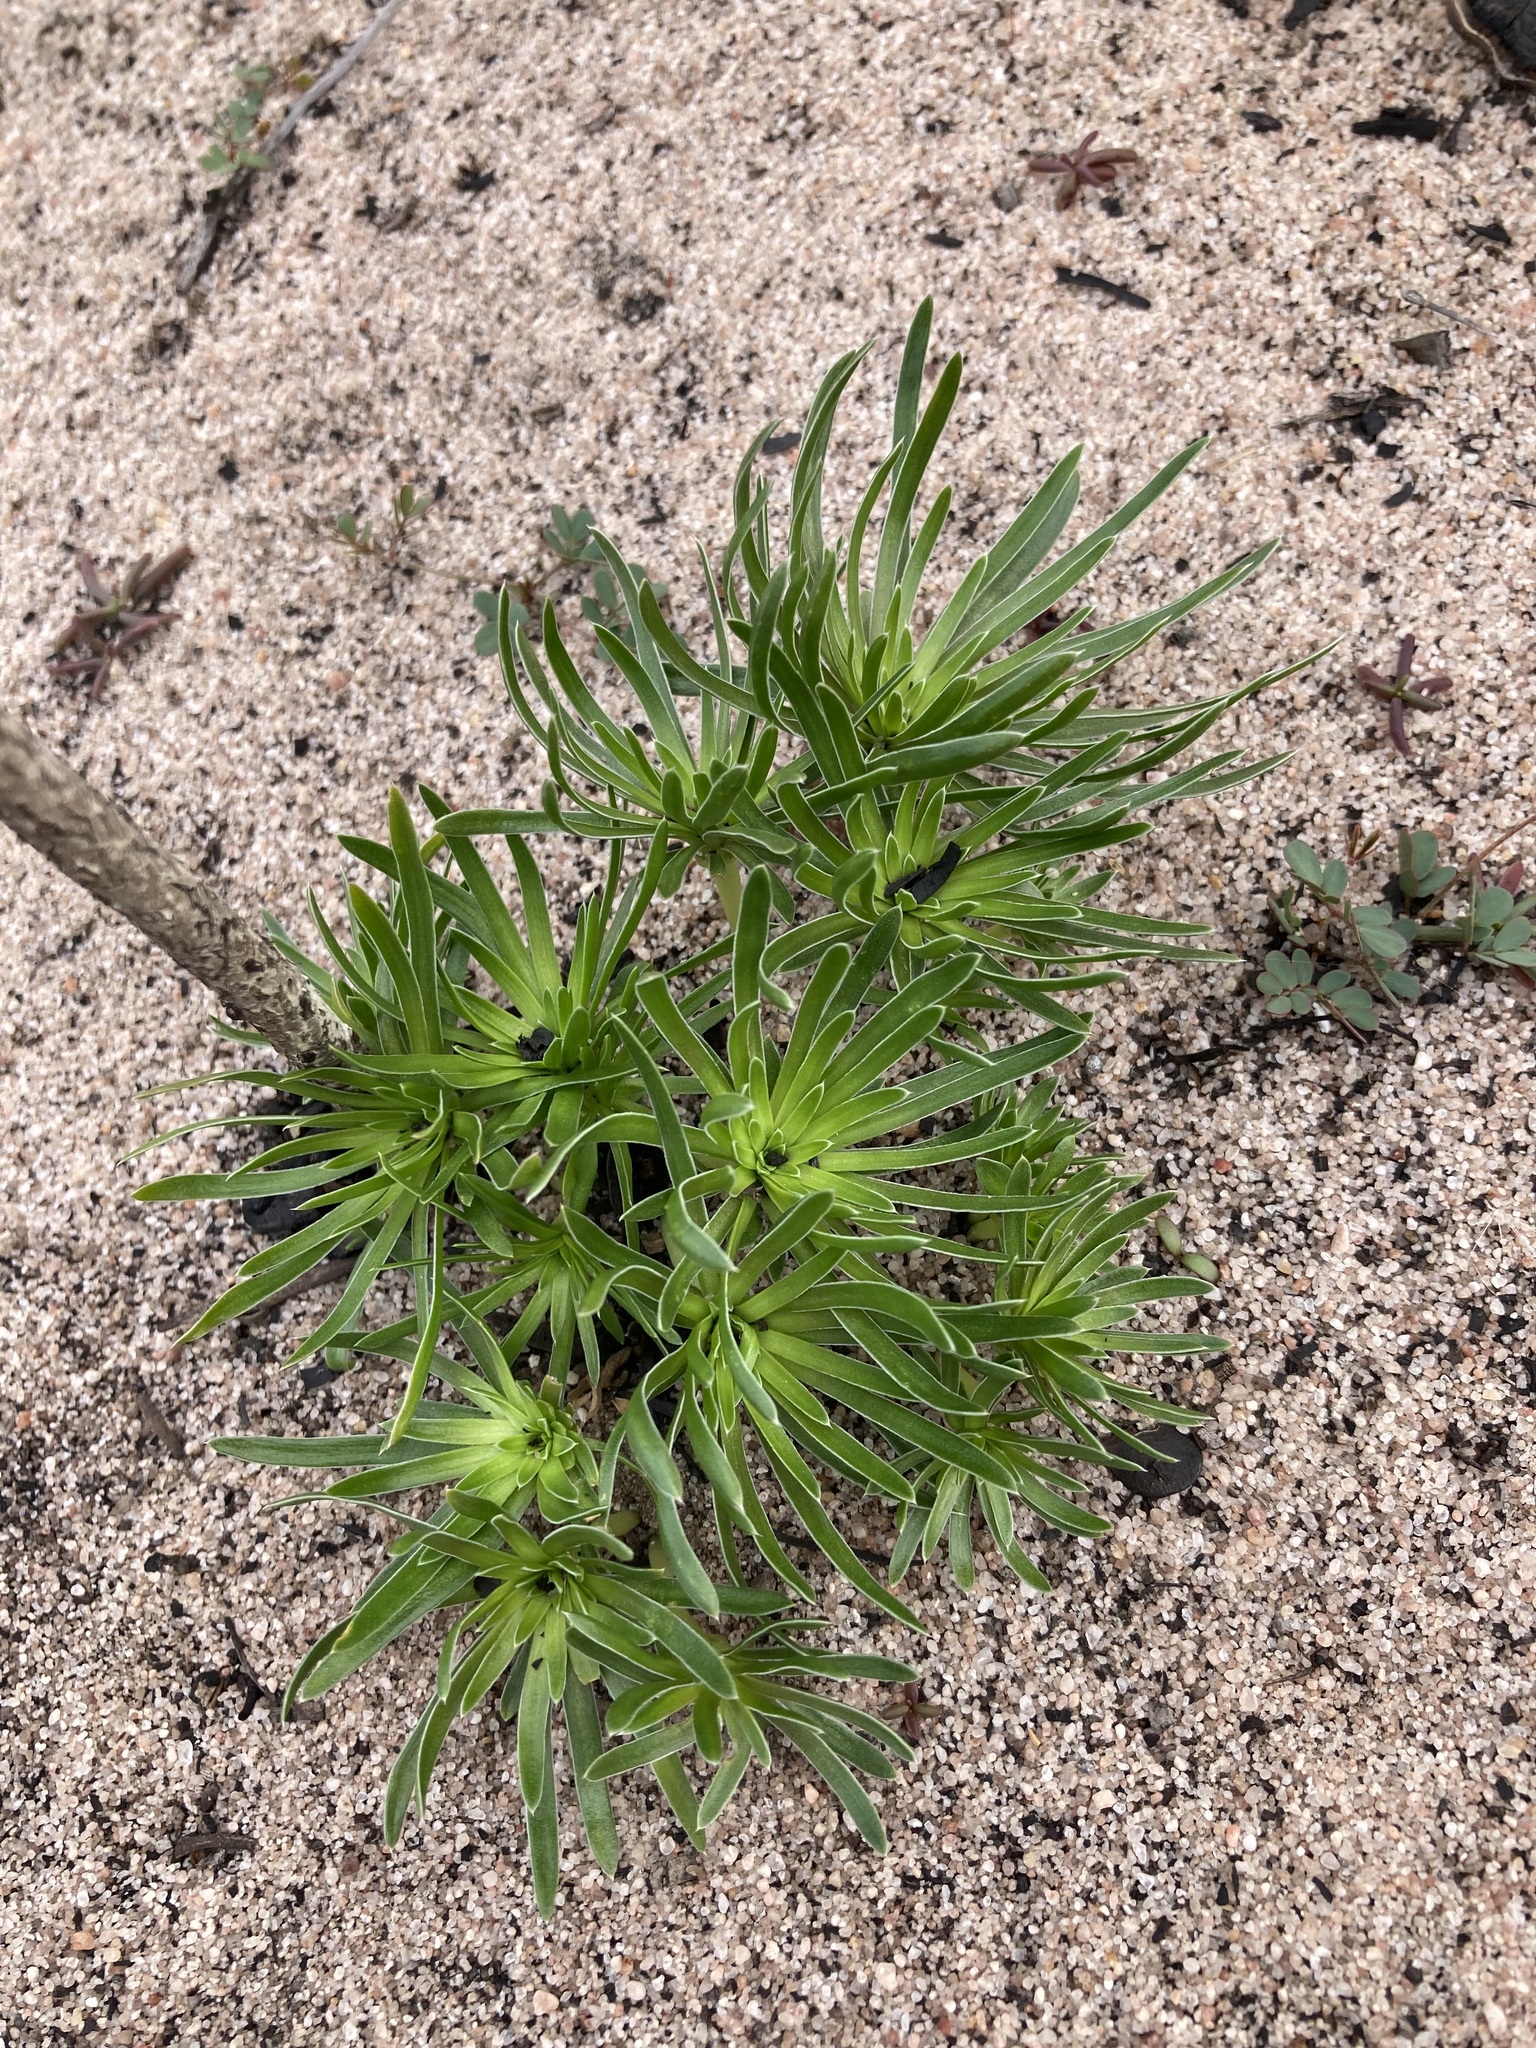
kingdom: Plantae
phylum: Tracheophyta
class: Magnoliopsida
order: Asterales
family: Stylidiaceae
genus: Stylidium
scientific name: Stylidium dispermum
